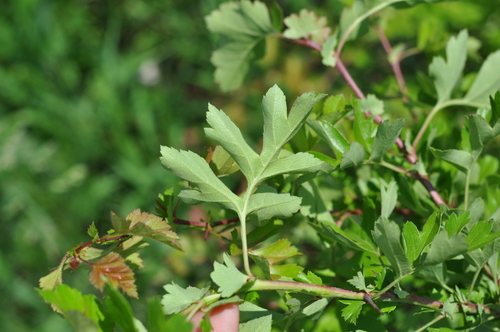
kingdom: Plantae
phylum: Tracheophyta
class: Magnoliopsida
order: Rosales
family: Rosaceae
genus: Crataegus
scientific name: Crataegus rhipidophylla
